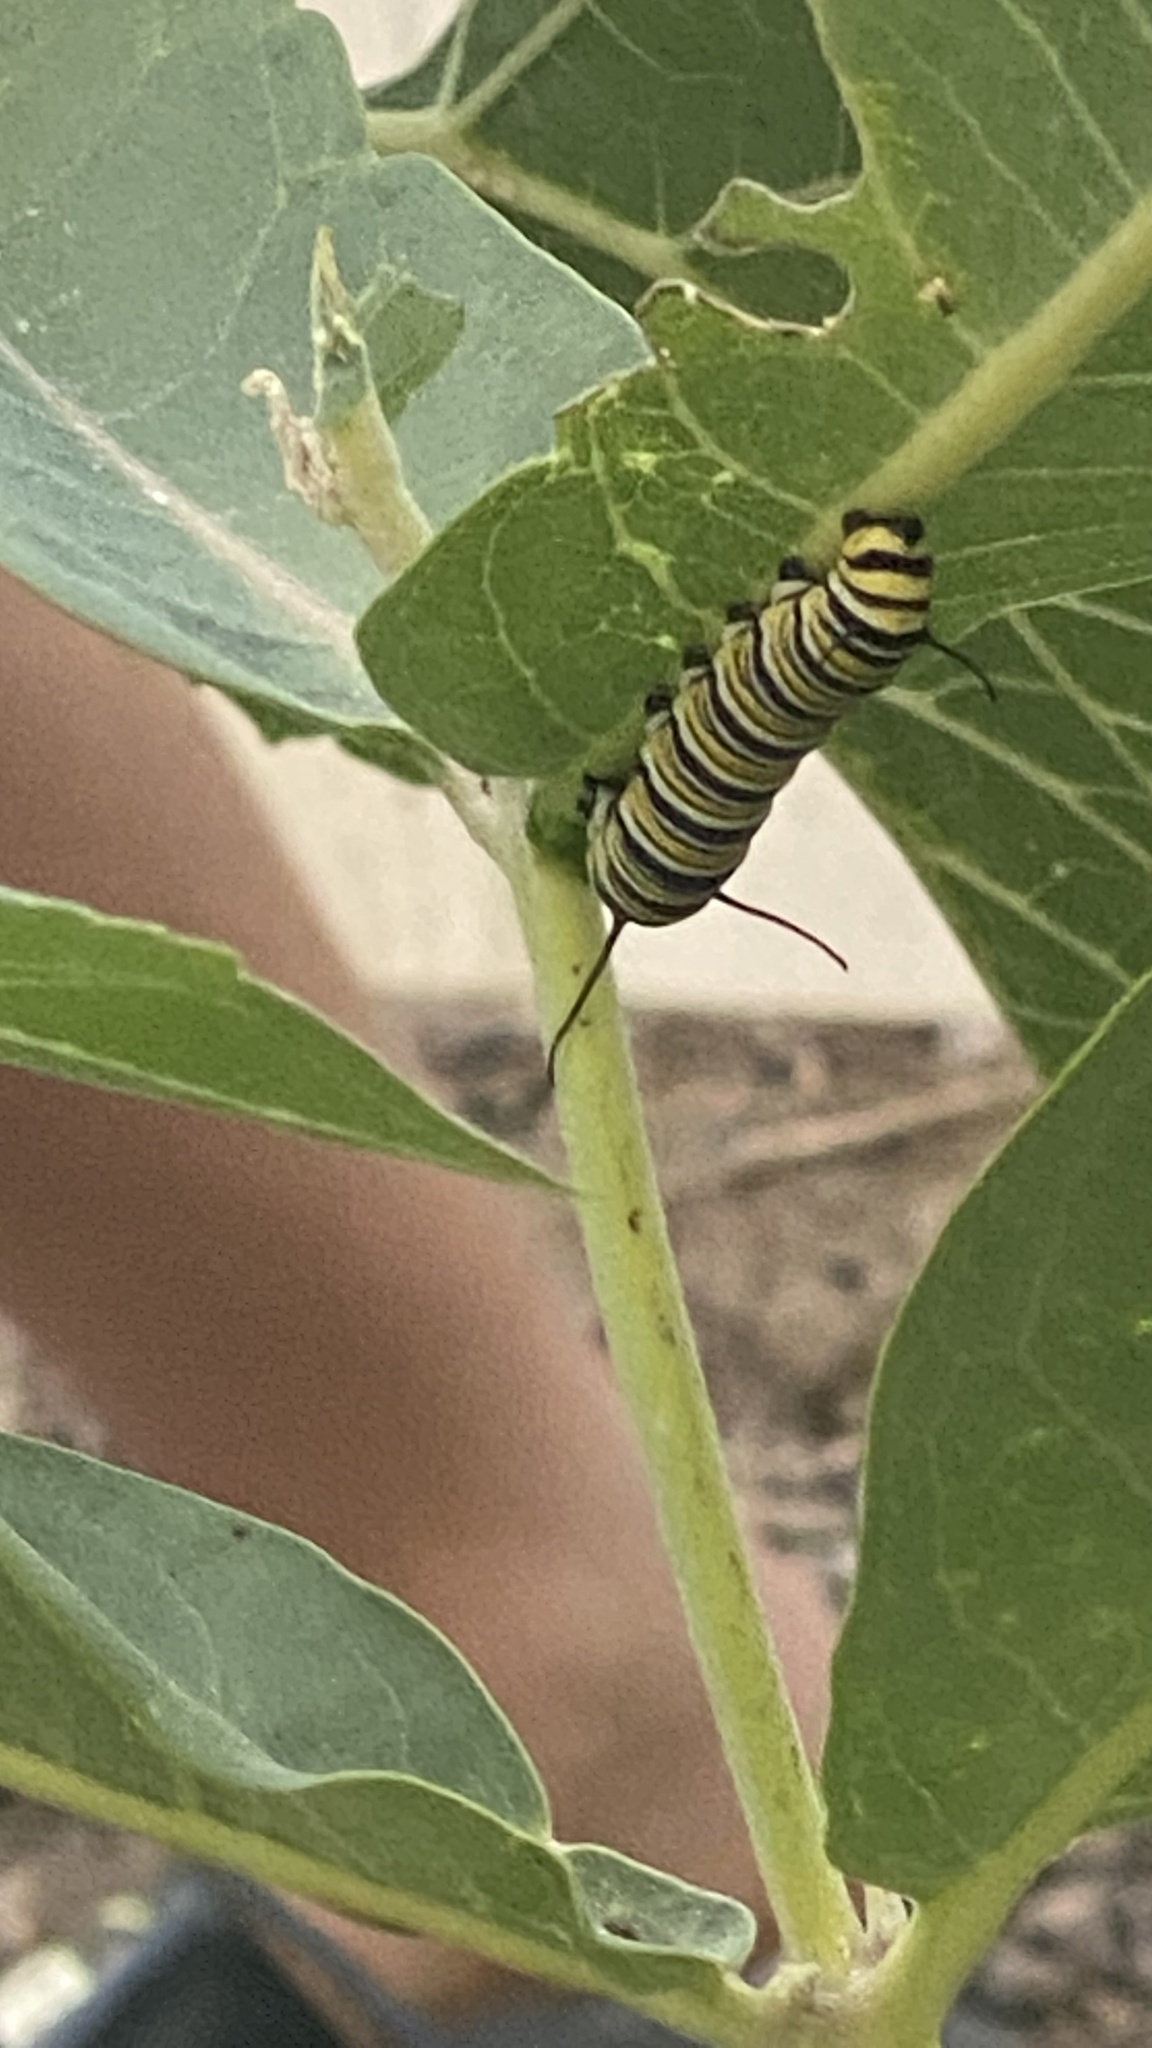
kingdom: Animalia
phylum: Arthropoda
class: Insecta
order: Lepidoptera
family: Nymphalidae
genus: Danaus
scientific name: Danaus plexippus
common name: Monarch
